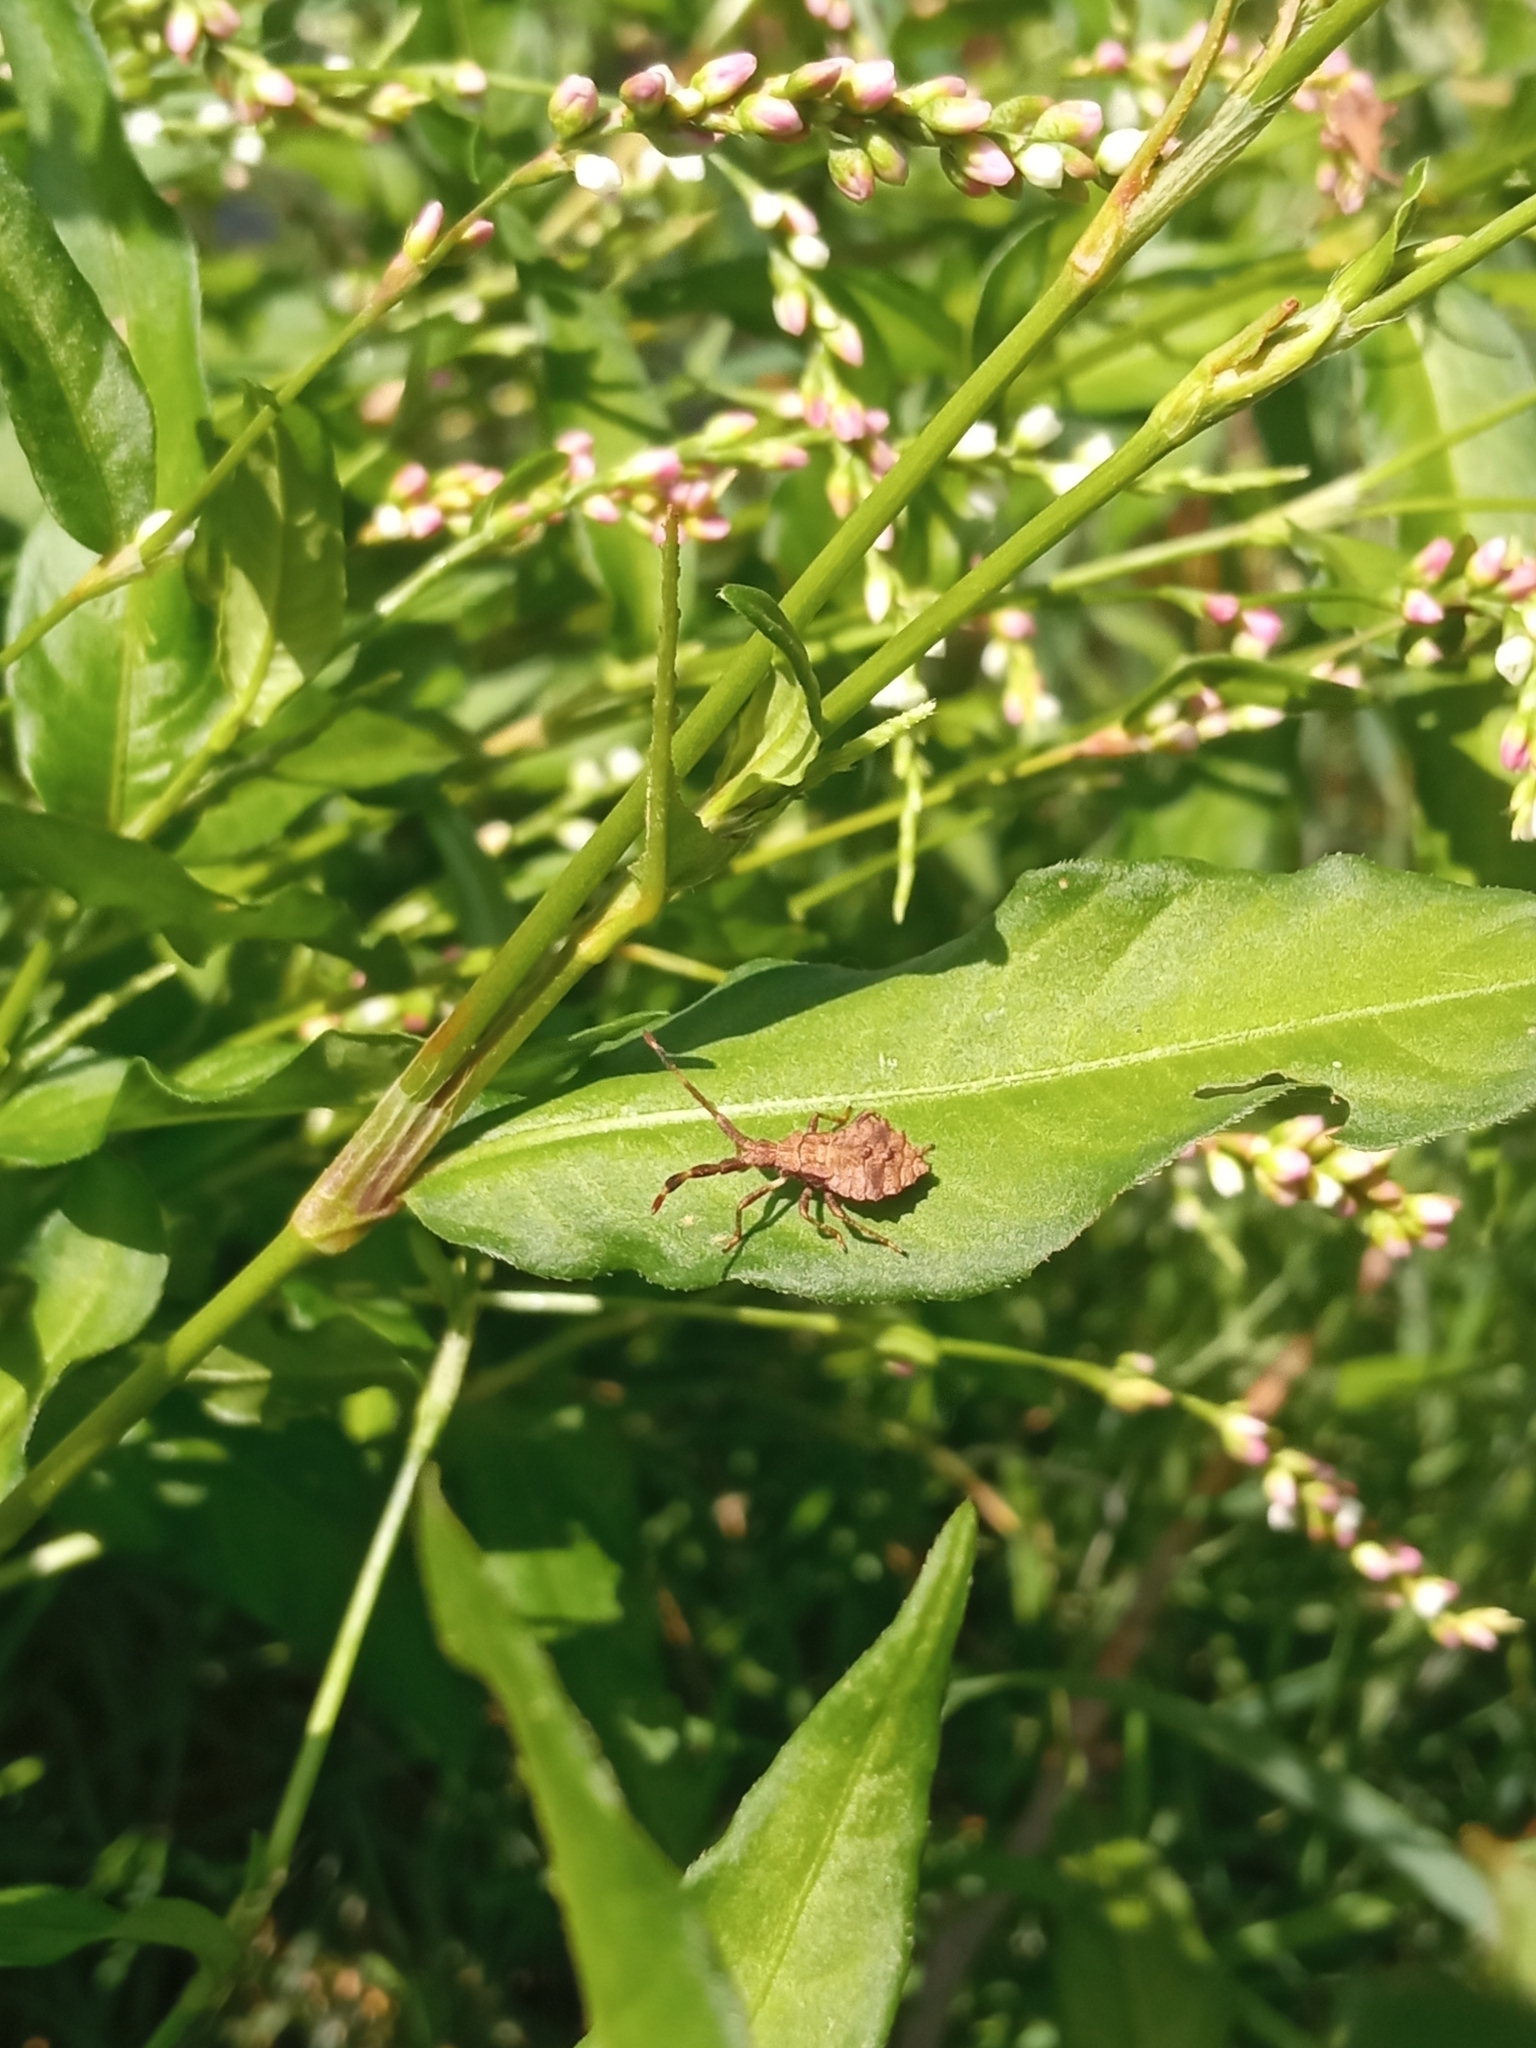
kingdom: Animalia
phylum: Arthropoda
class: Insecta
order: Hemiptera
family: Coreidae
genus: Coreus
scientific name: Coreus marginatus
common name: Dock bug
